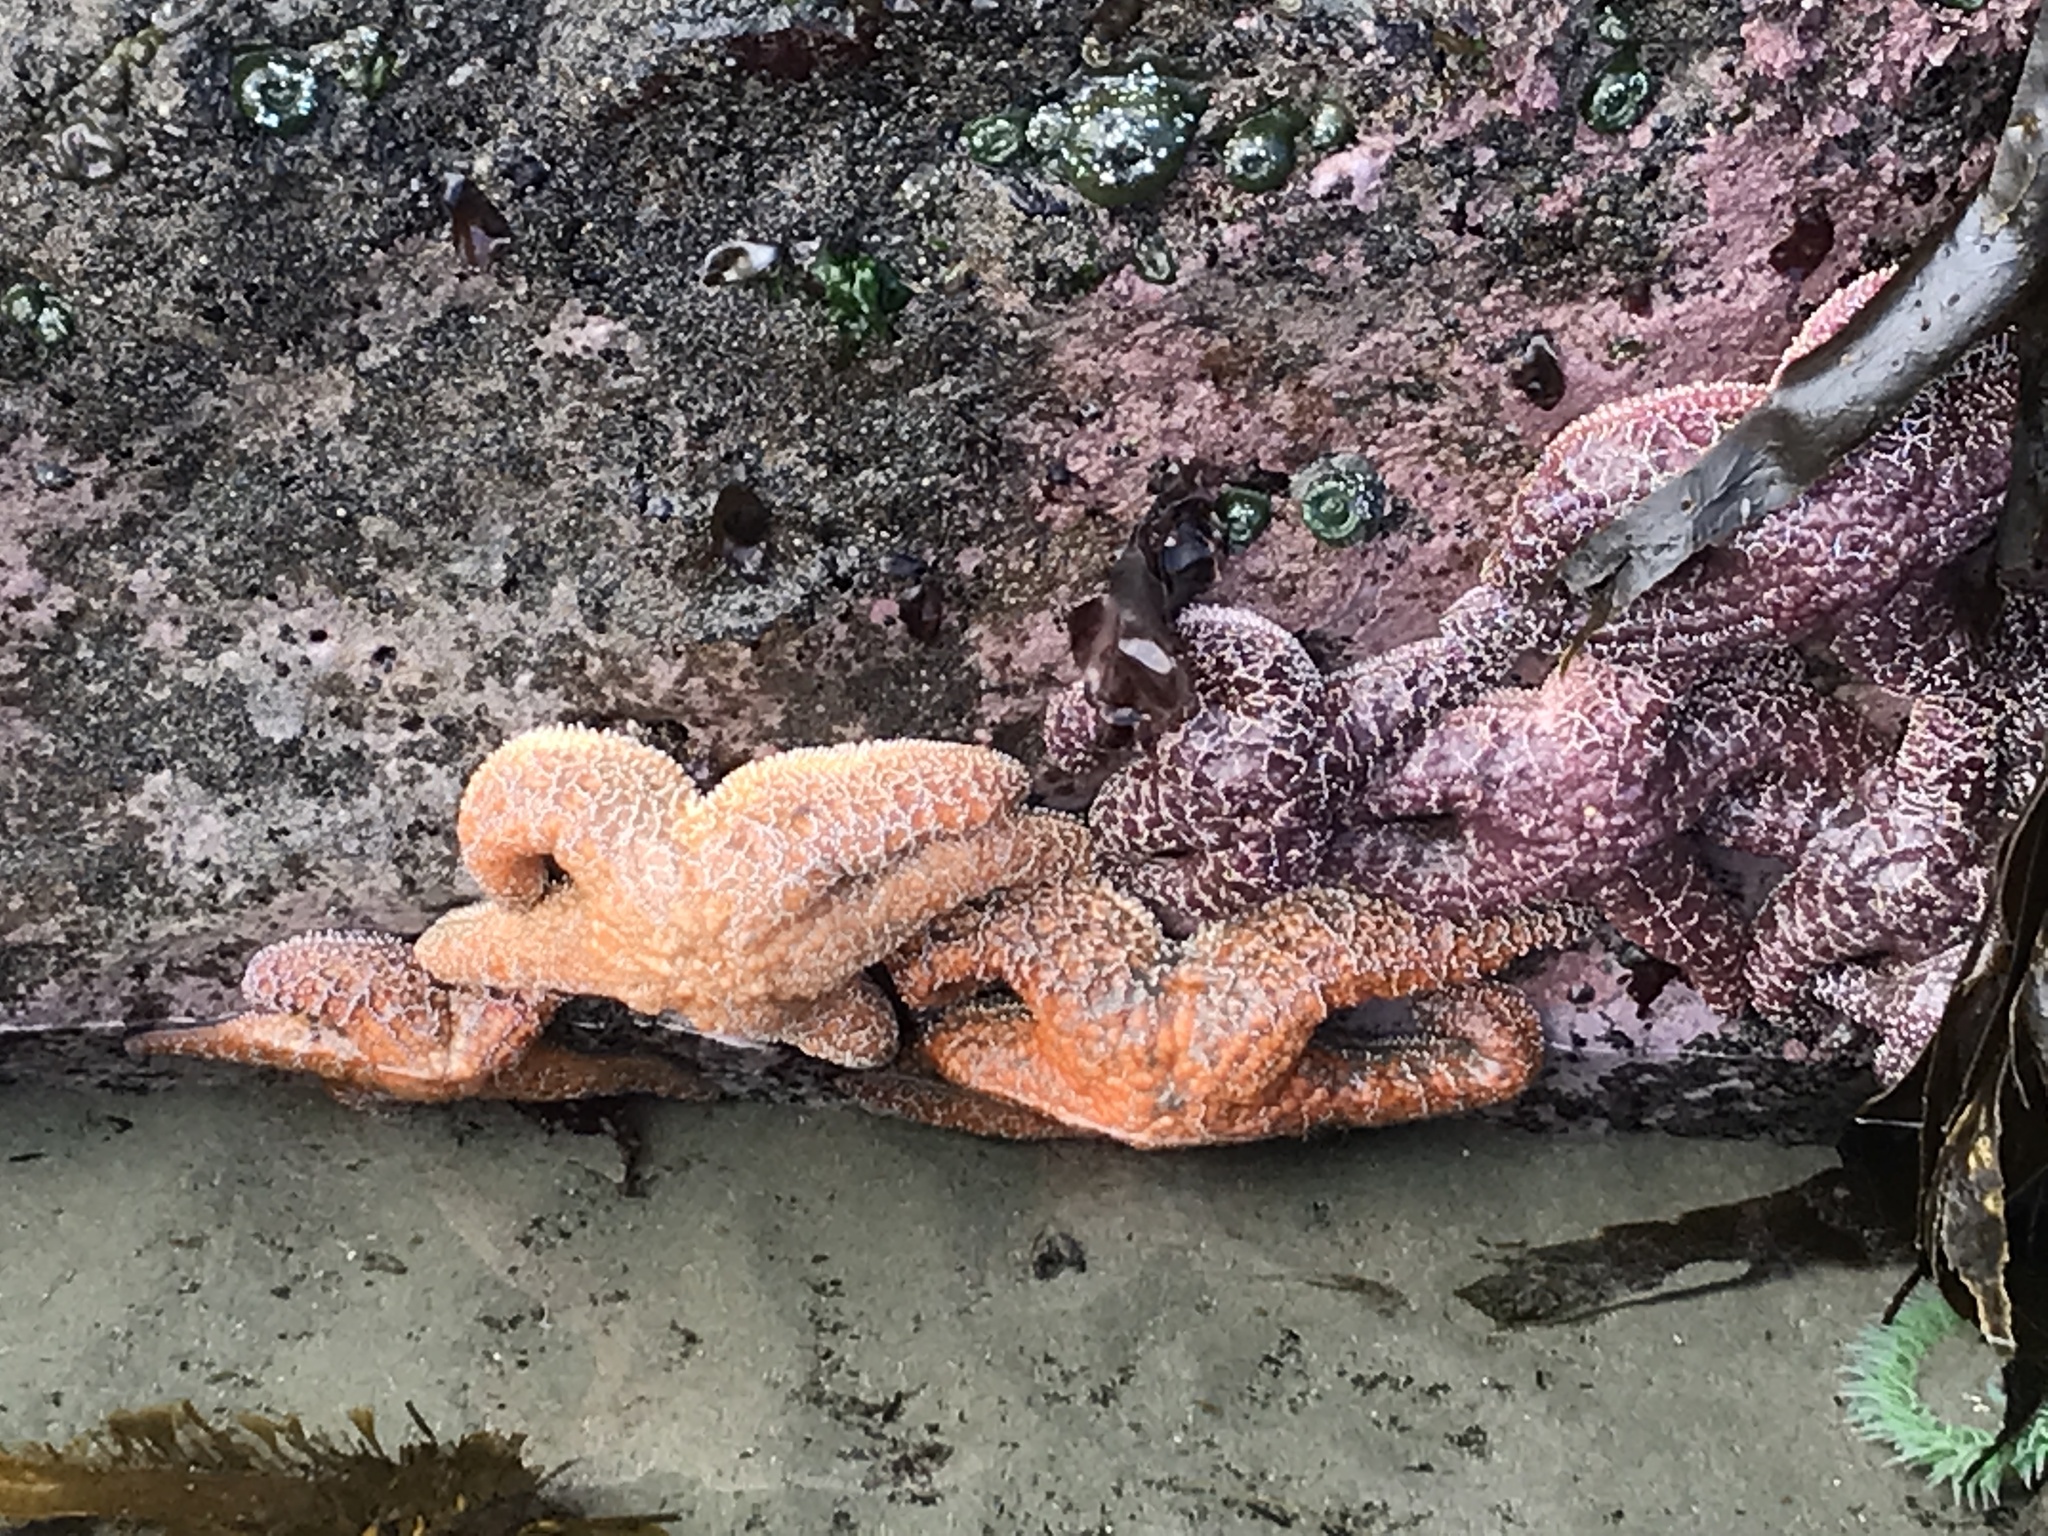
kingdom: Animalia
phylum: Echinodermata
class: Asteroidea
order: Forcipulatida
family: Asteriidae
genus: Pisaster
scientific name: Pisaster ochraceus
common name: Ochre stars
